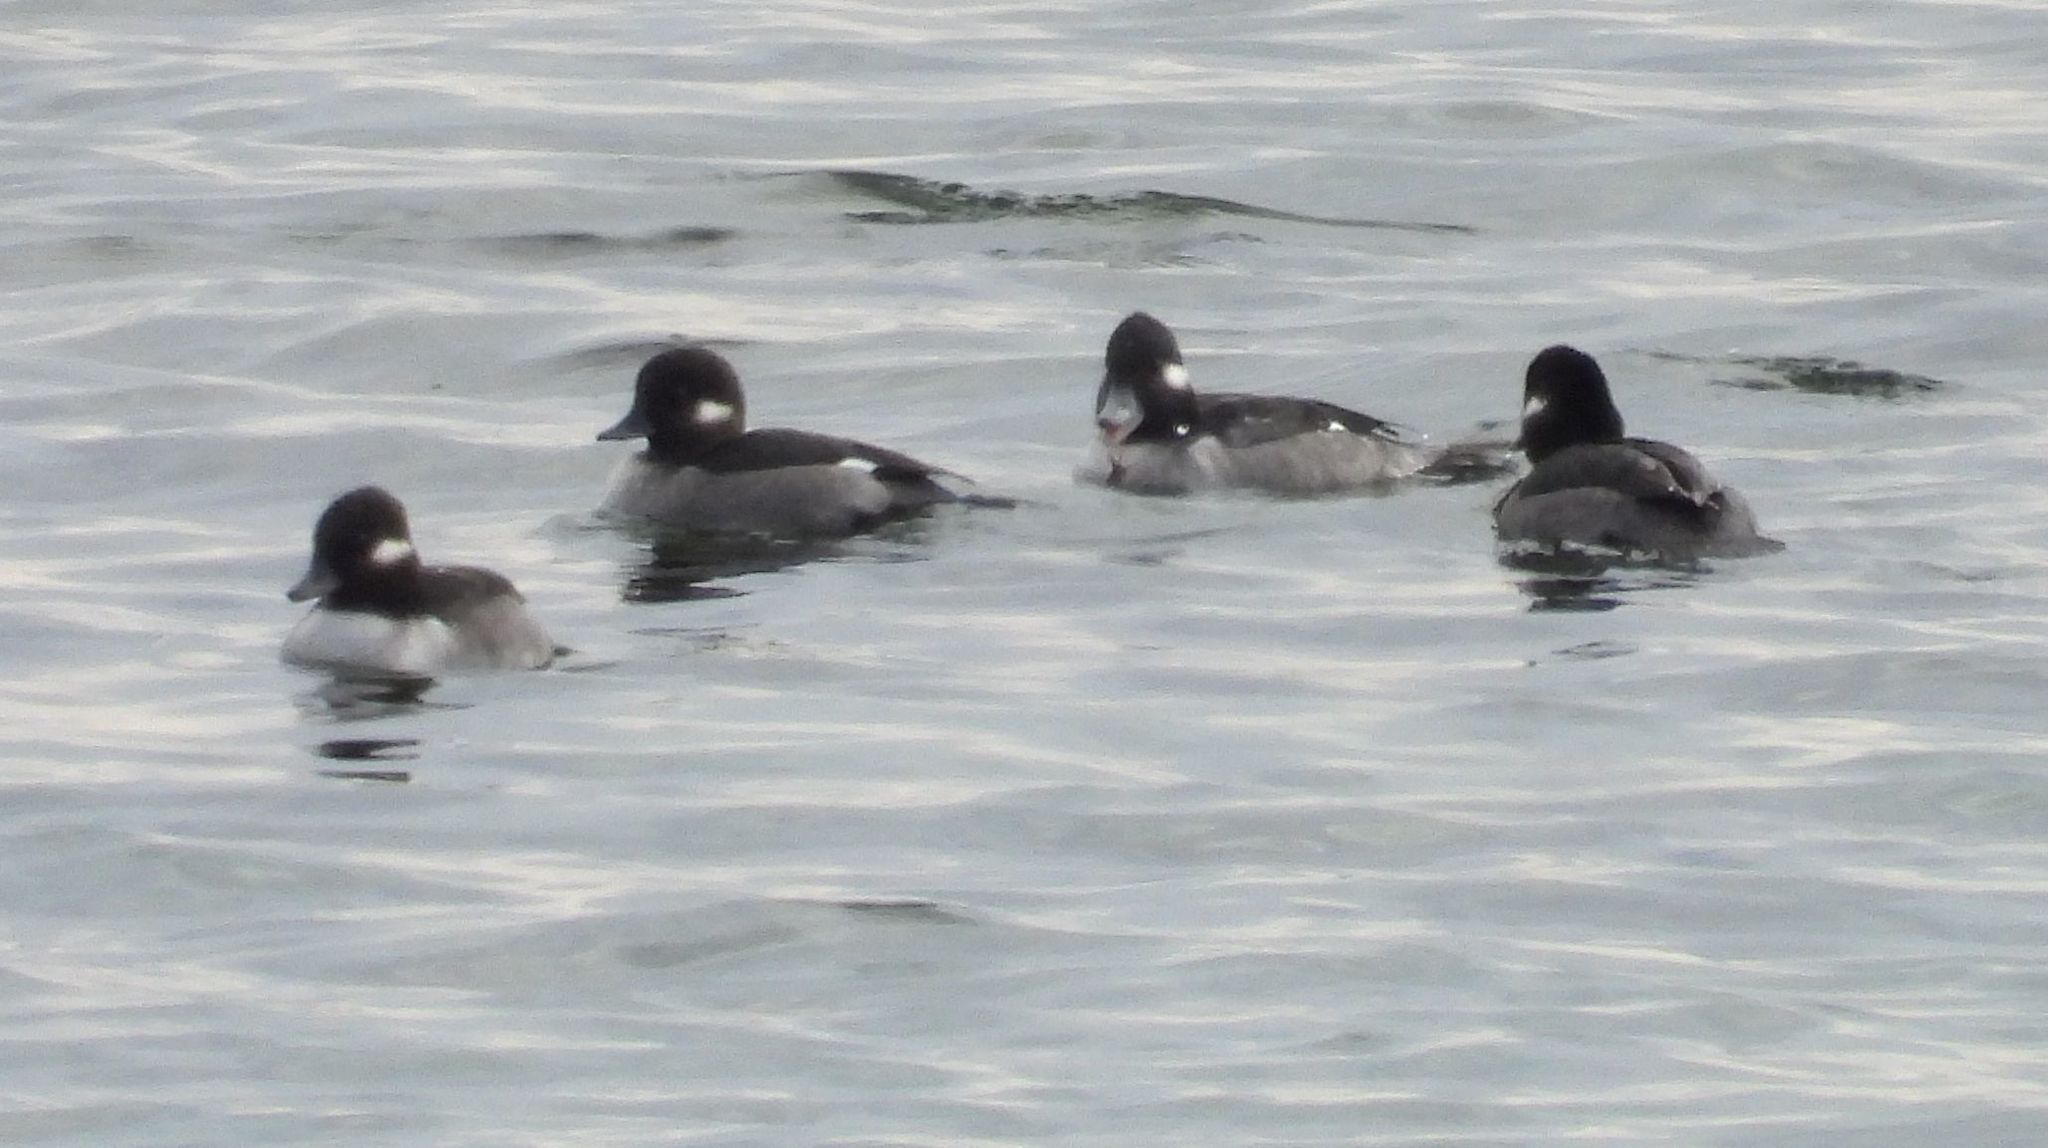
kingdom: Animalia
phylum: Chordata
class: Aves
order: Anseriformes
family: Anatidae
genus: Bucephala
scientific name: Bucephala albeola
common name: Bufflehead
